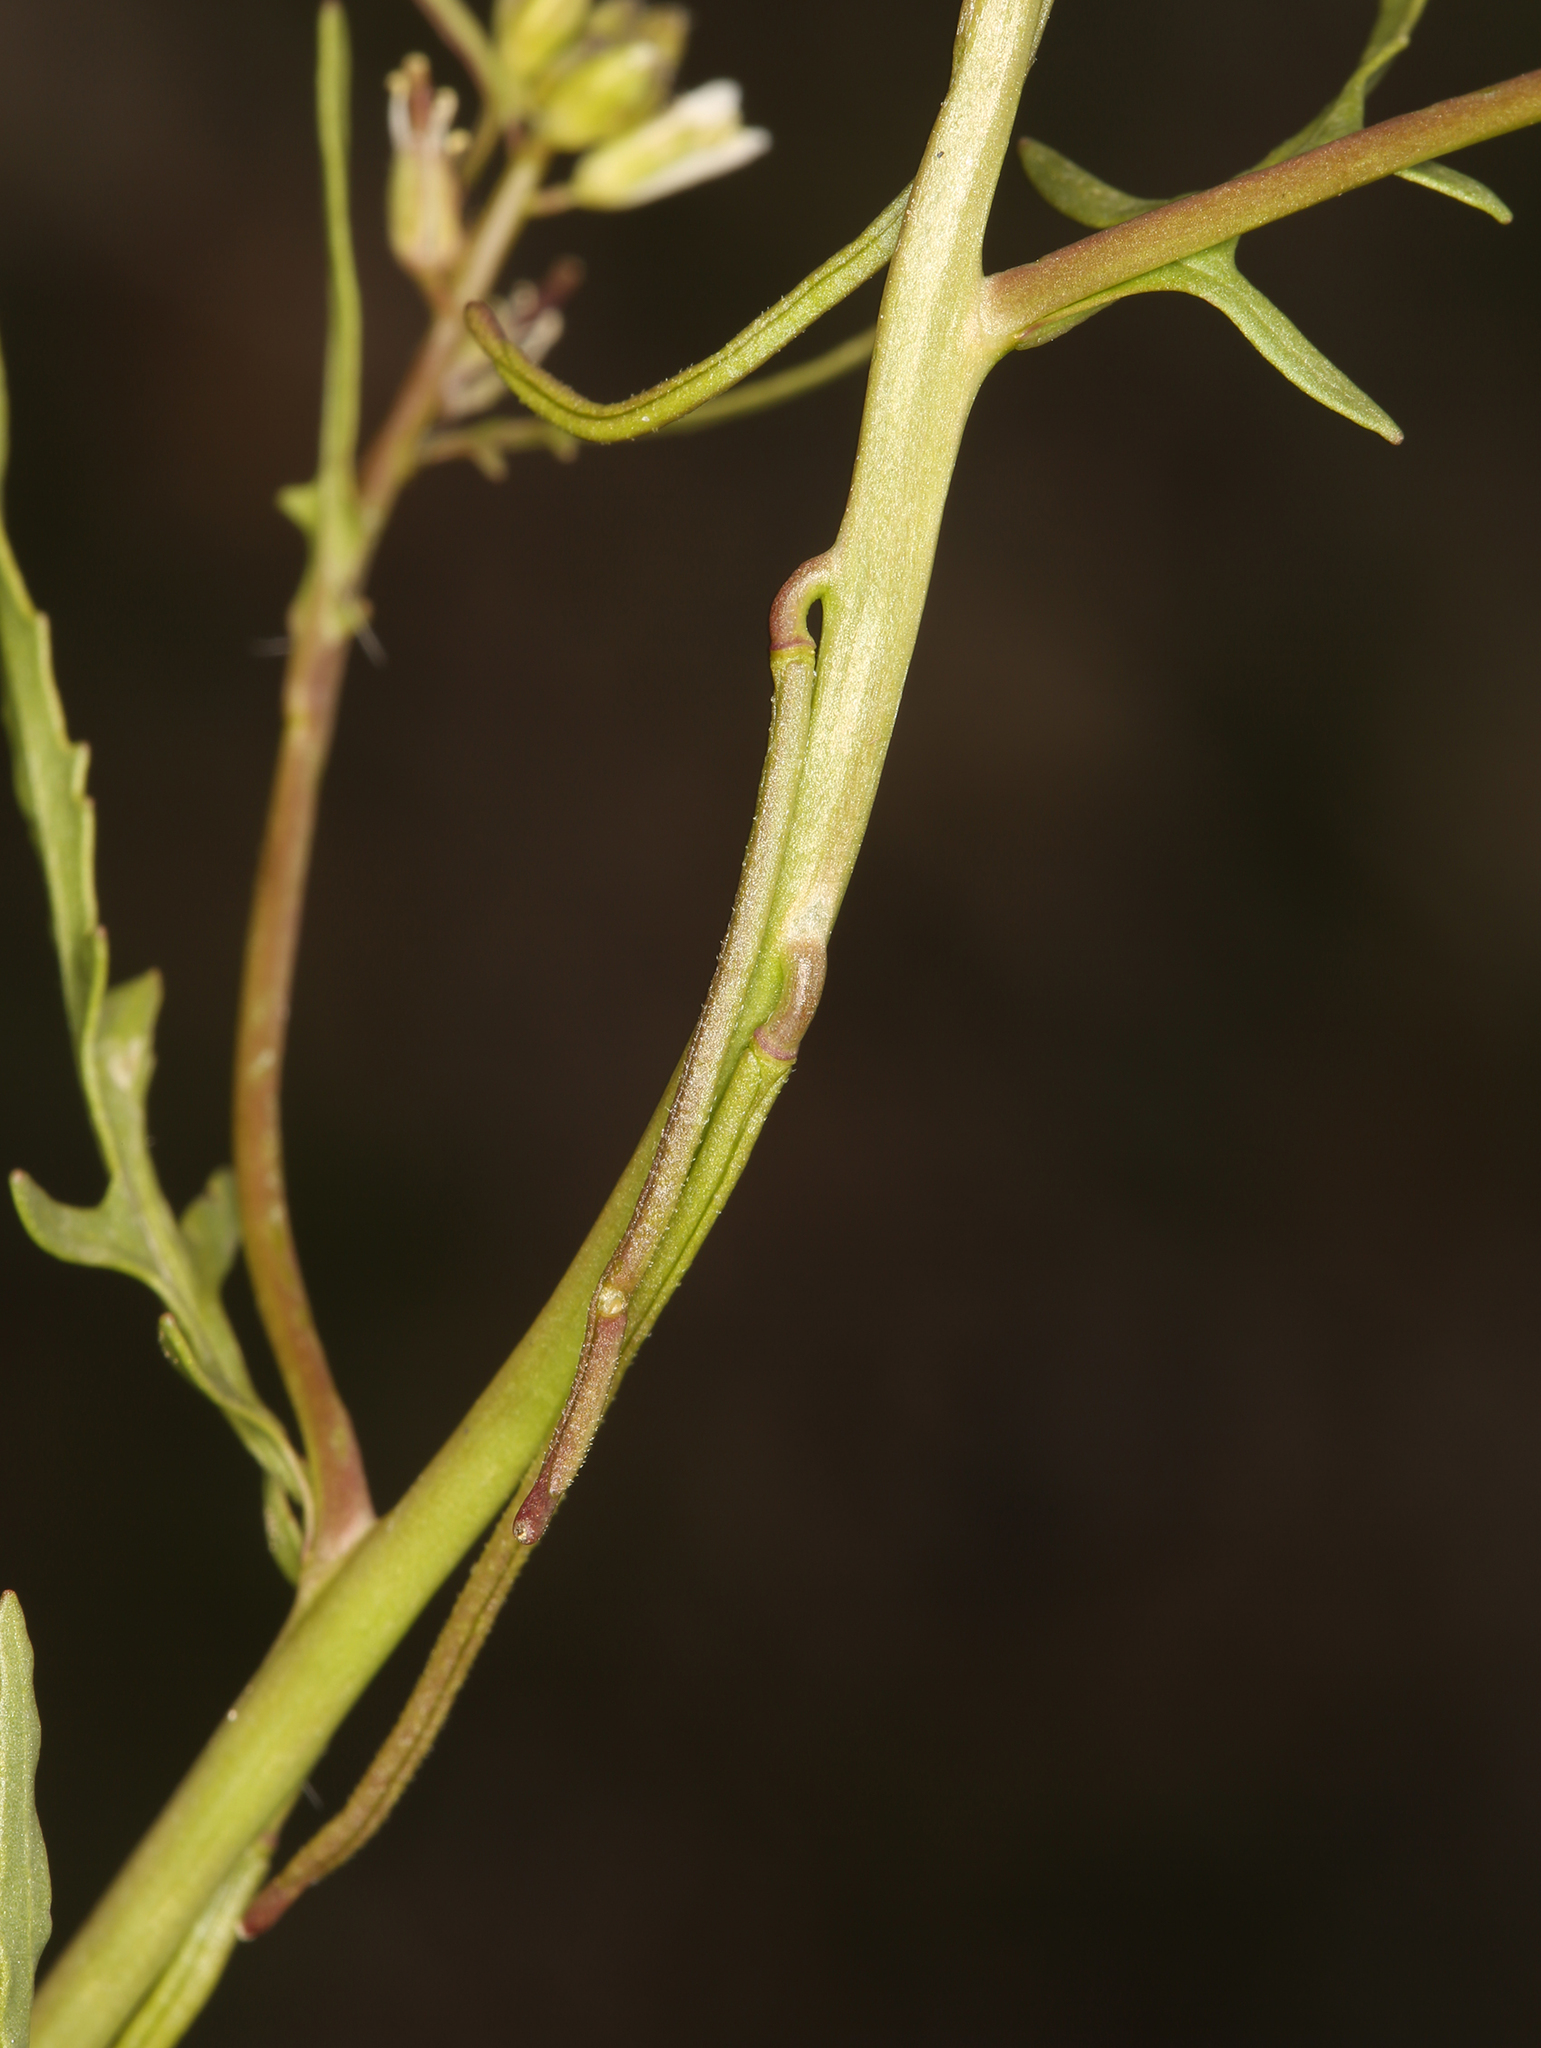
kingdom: Plantae
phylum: Tracheophyta
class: Magnoliopsida
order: Brassicales
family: Brassicaceae
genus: Streptanthus
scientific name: Streptanthus lasiophyllus
